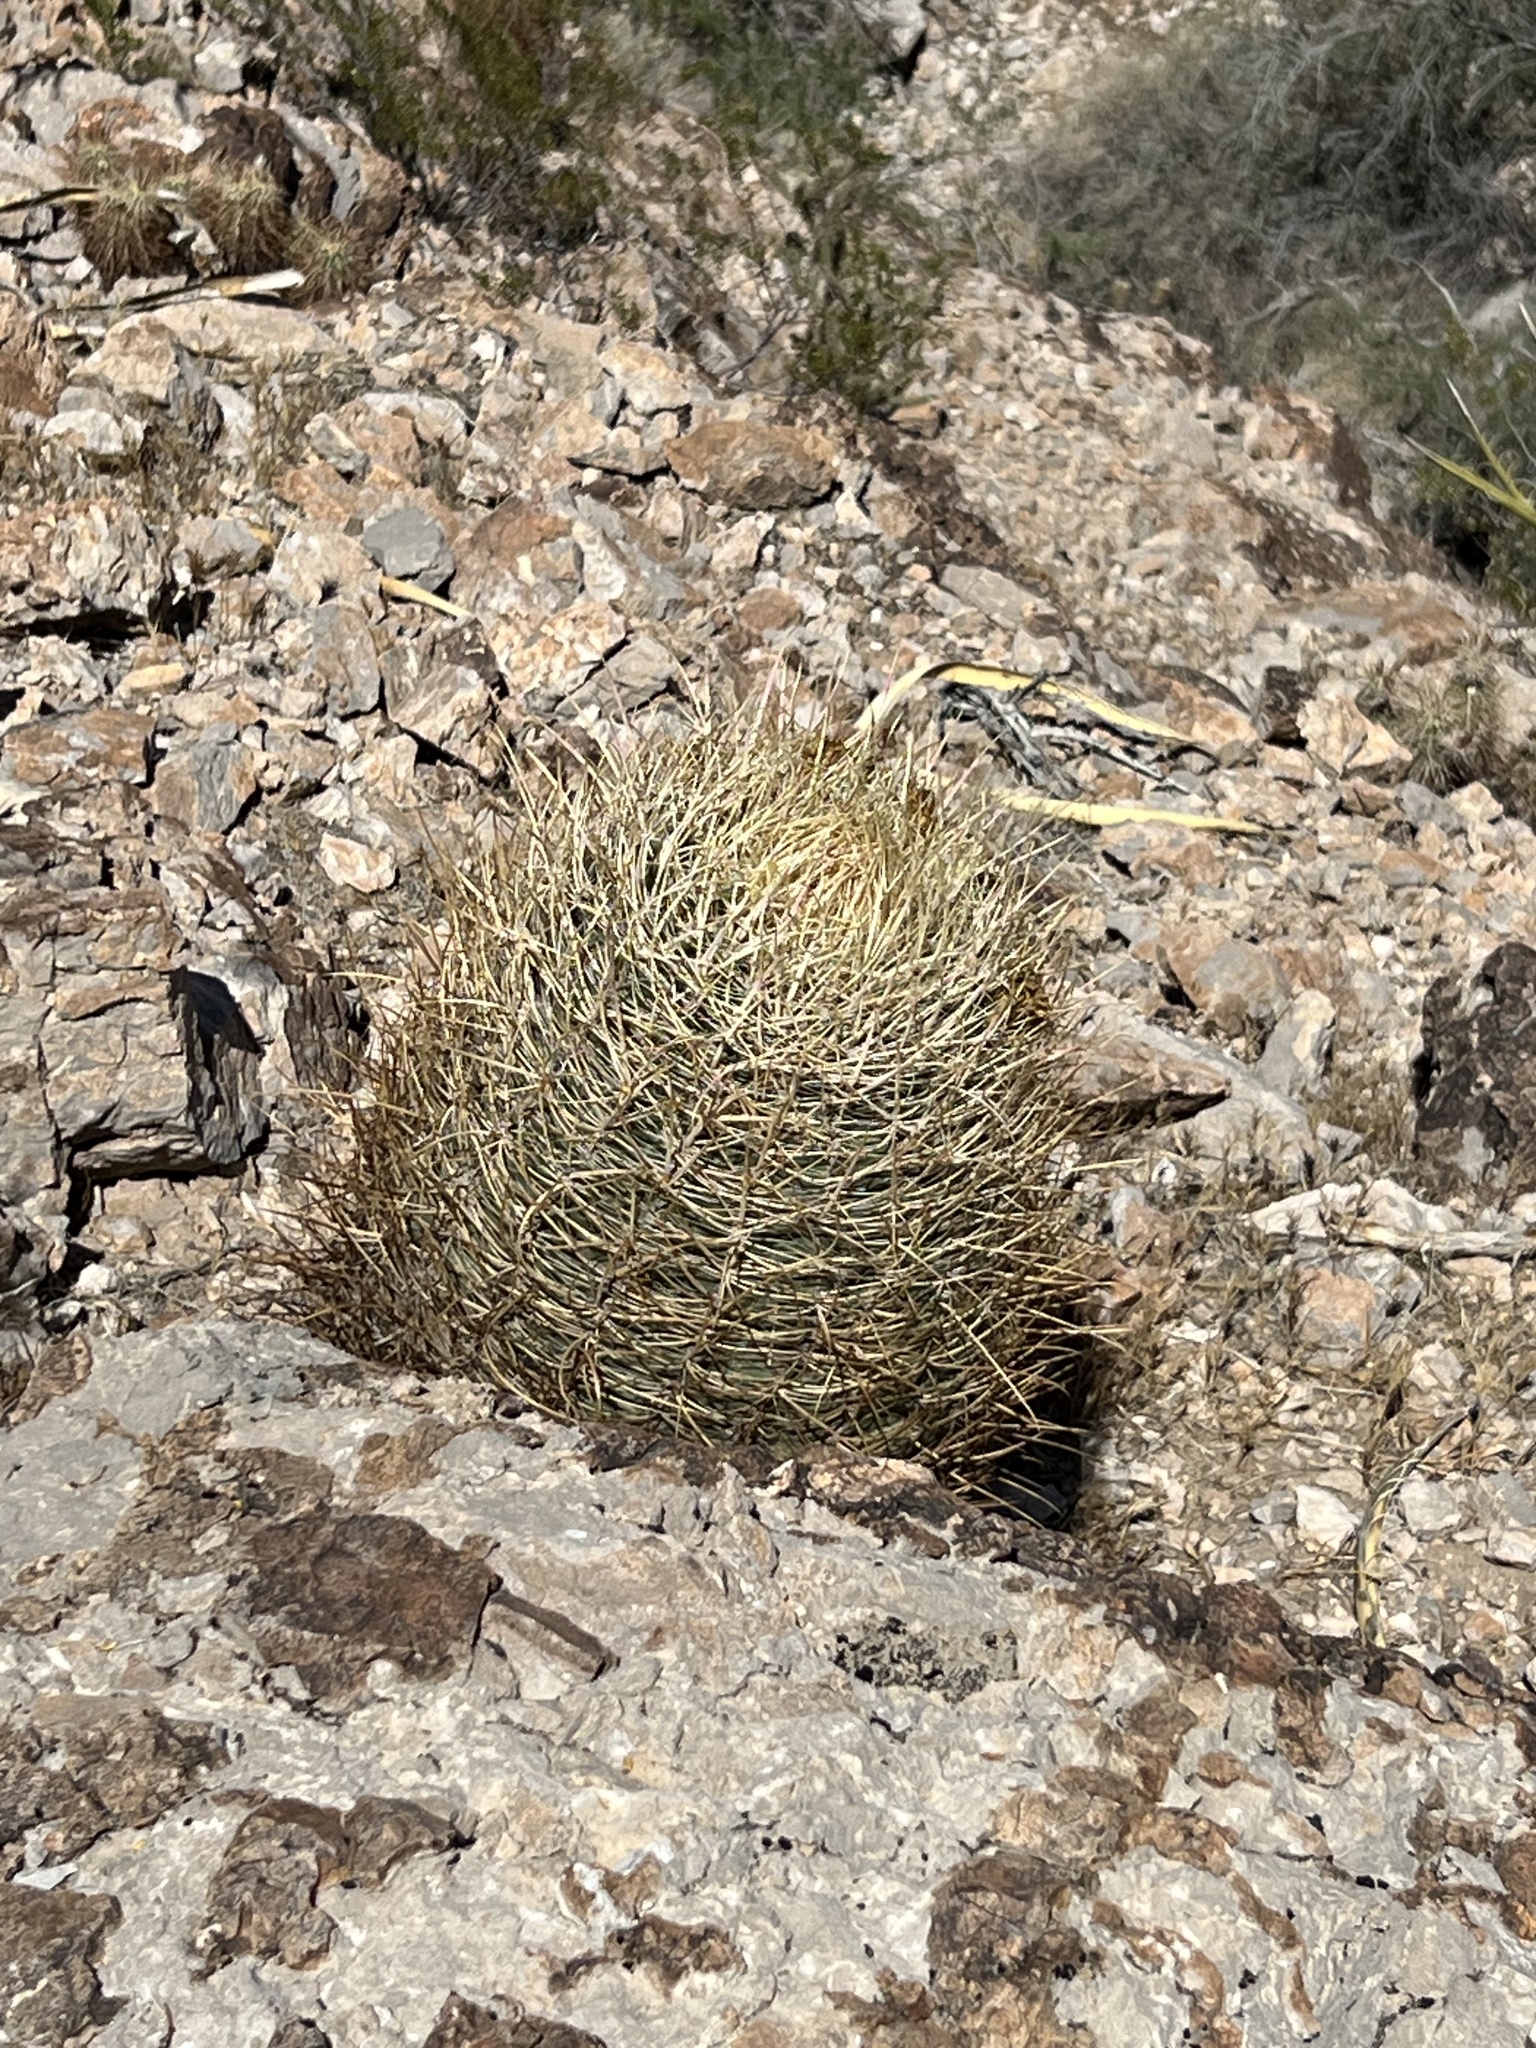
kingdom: Plantae
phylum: Tracheophyta
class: Magnoliopsida
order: Caryophyllales
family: Cactaceae
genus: Ferocactus
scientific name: Ferocactus cylindraceus
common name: California barrel cactus
